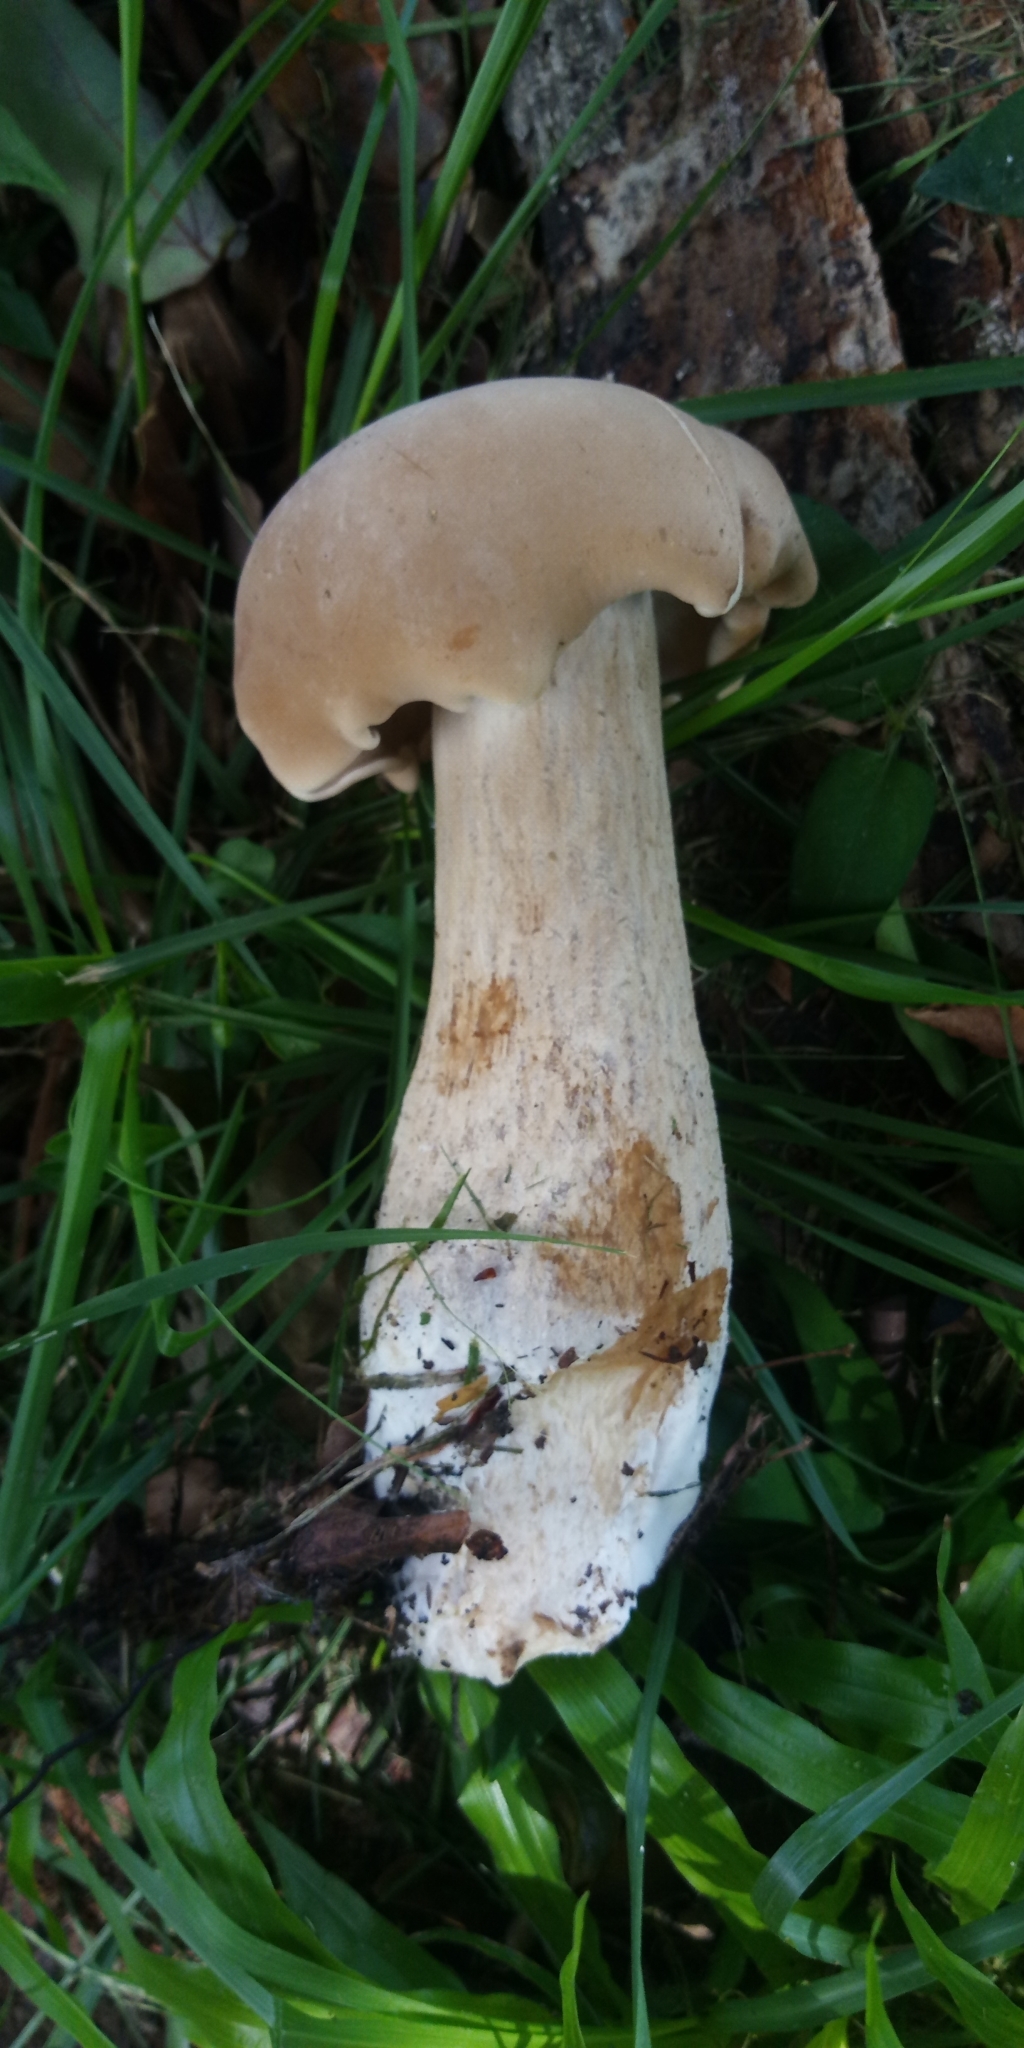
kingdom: Fungi
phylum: Basidiomycota
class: Agaricomycetes
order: Agaricales
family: Callistosporiaceae
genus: Macrocybe
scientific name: Macrocybe gigantea
